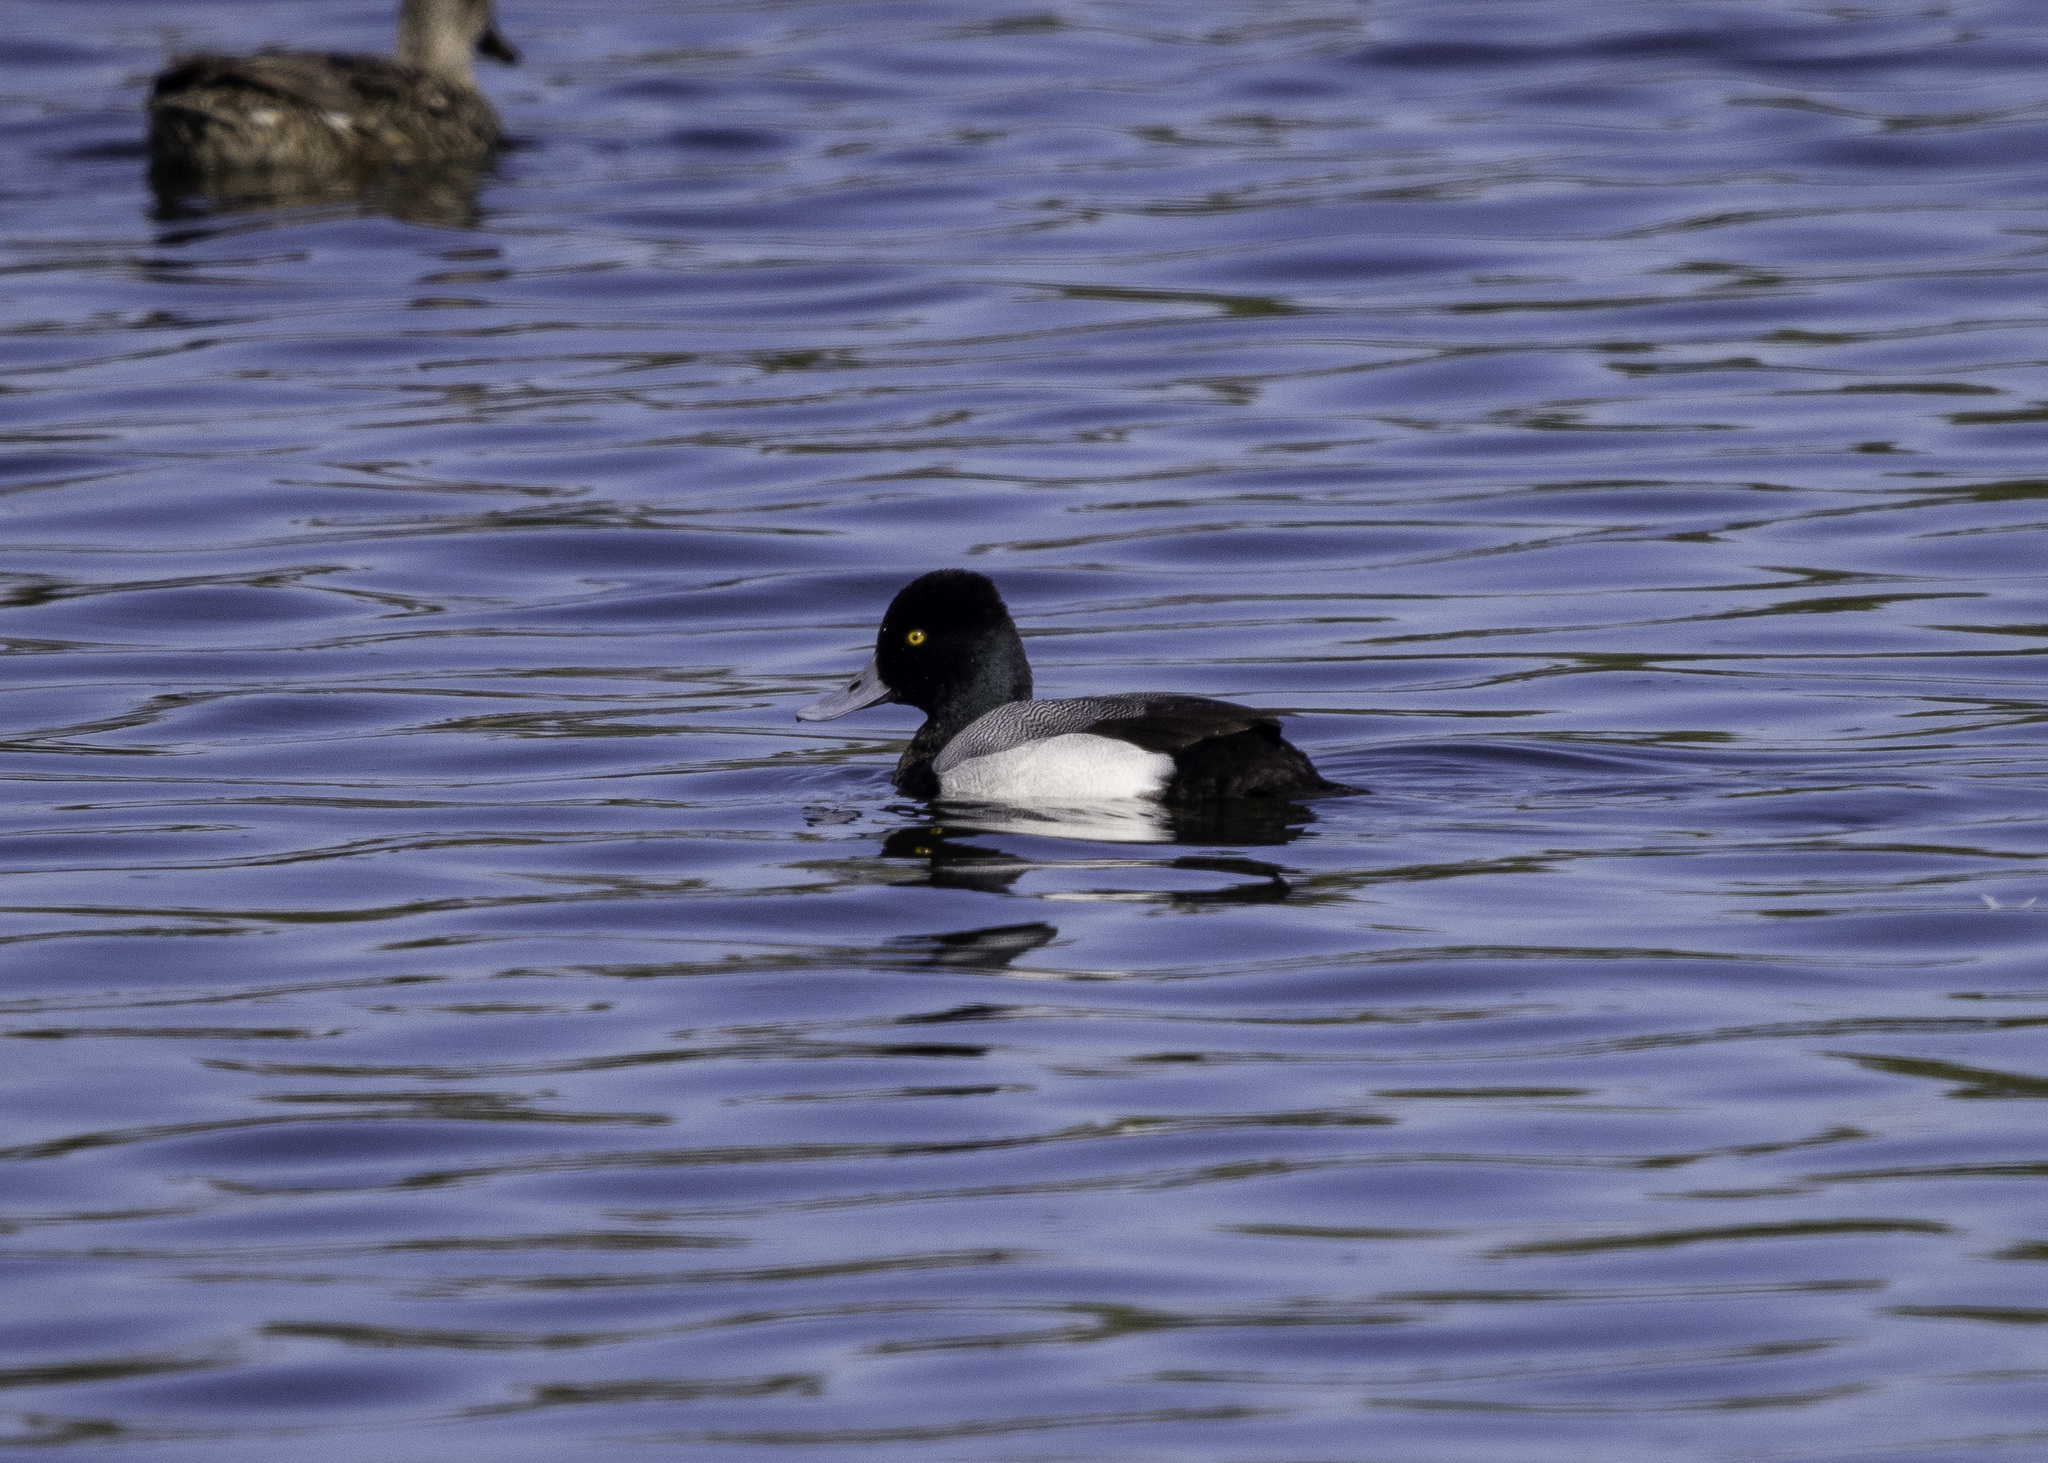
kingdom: Animalia
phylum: Chordata
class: Aves
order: Anseriformes
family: Anatidae
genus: Aythya
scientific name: Aythya affinis
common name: Lesser scaup
